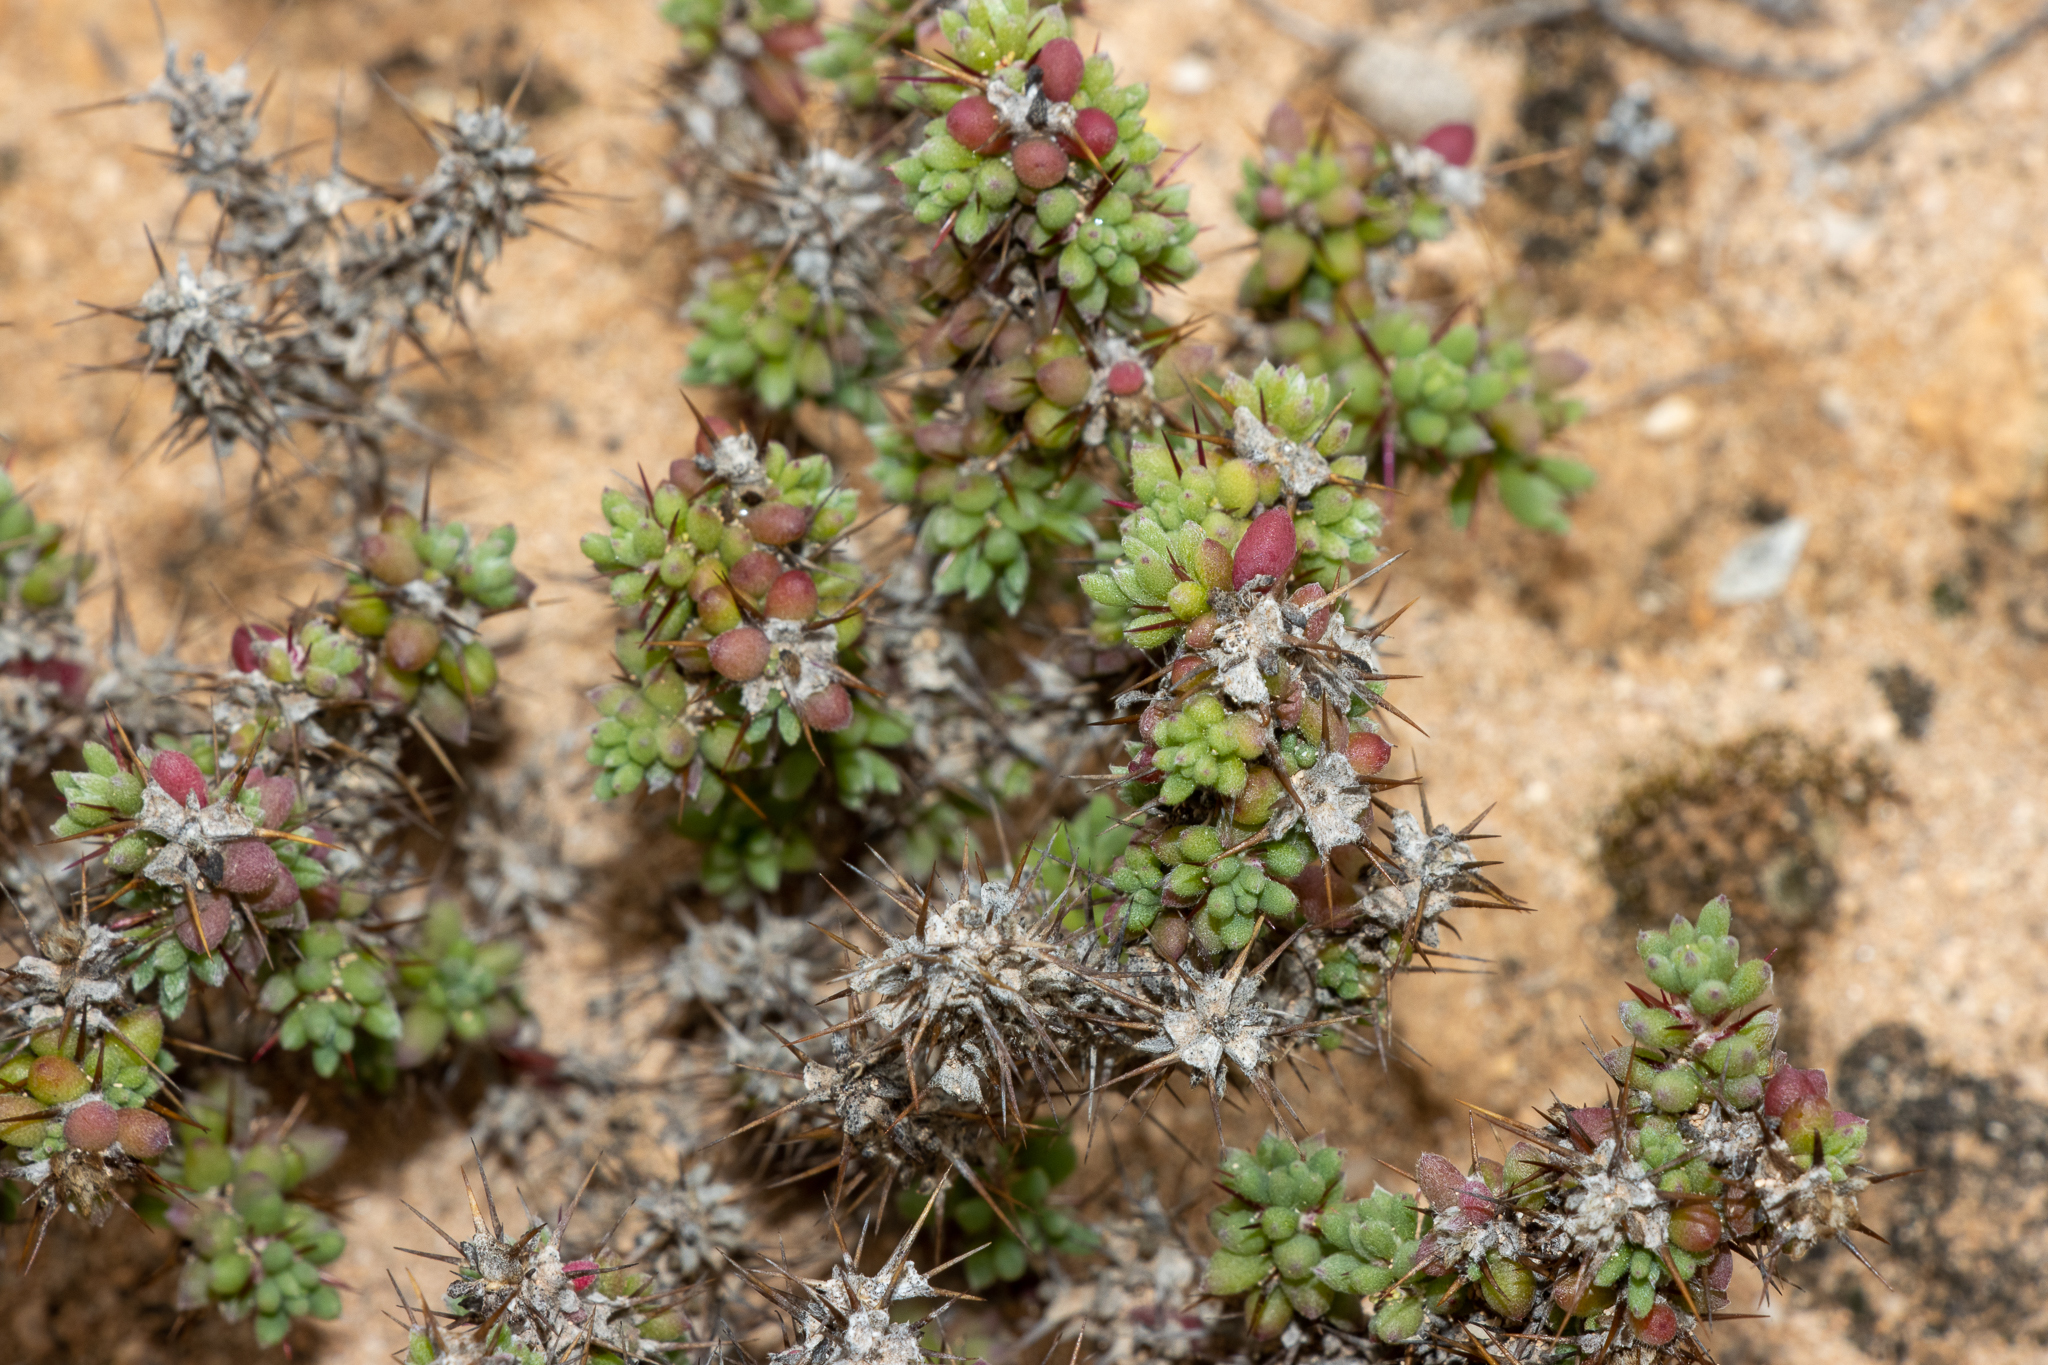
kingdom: Plantae
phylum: Tracheophyta
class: Magnoliopsida
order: Caryophyllales
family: Amaranthaceae
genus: Sclerolaena
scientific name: Sclerolaena brevifolia
